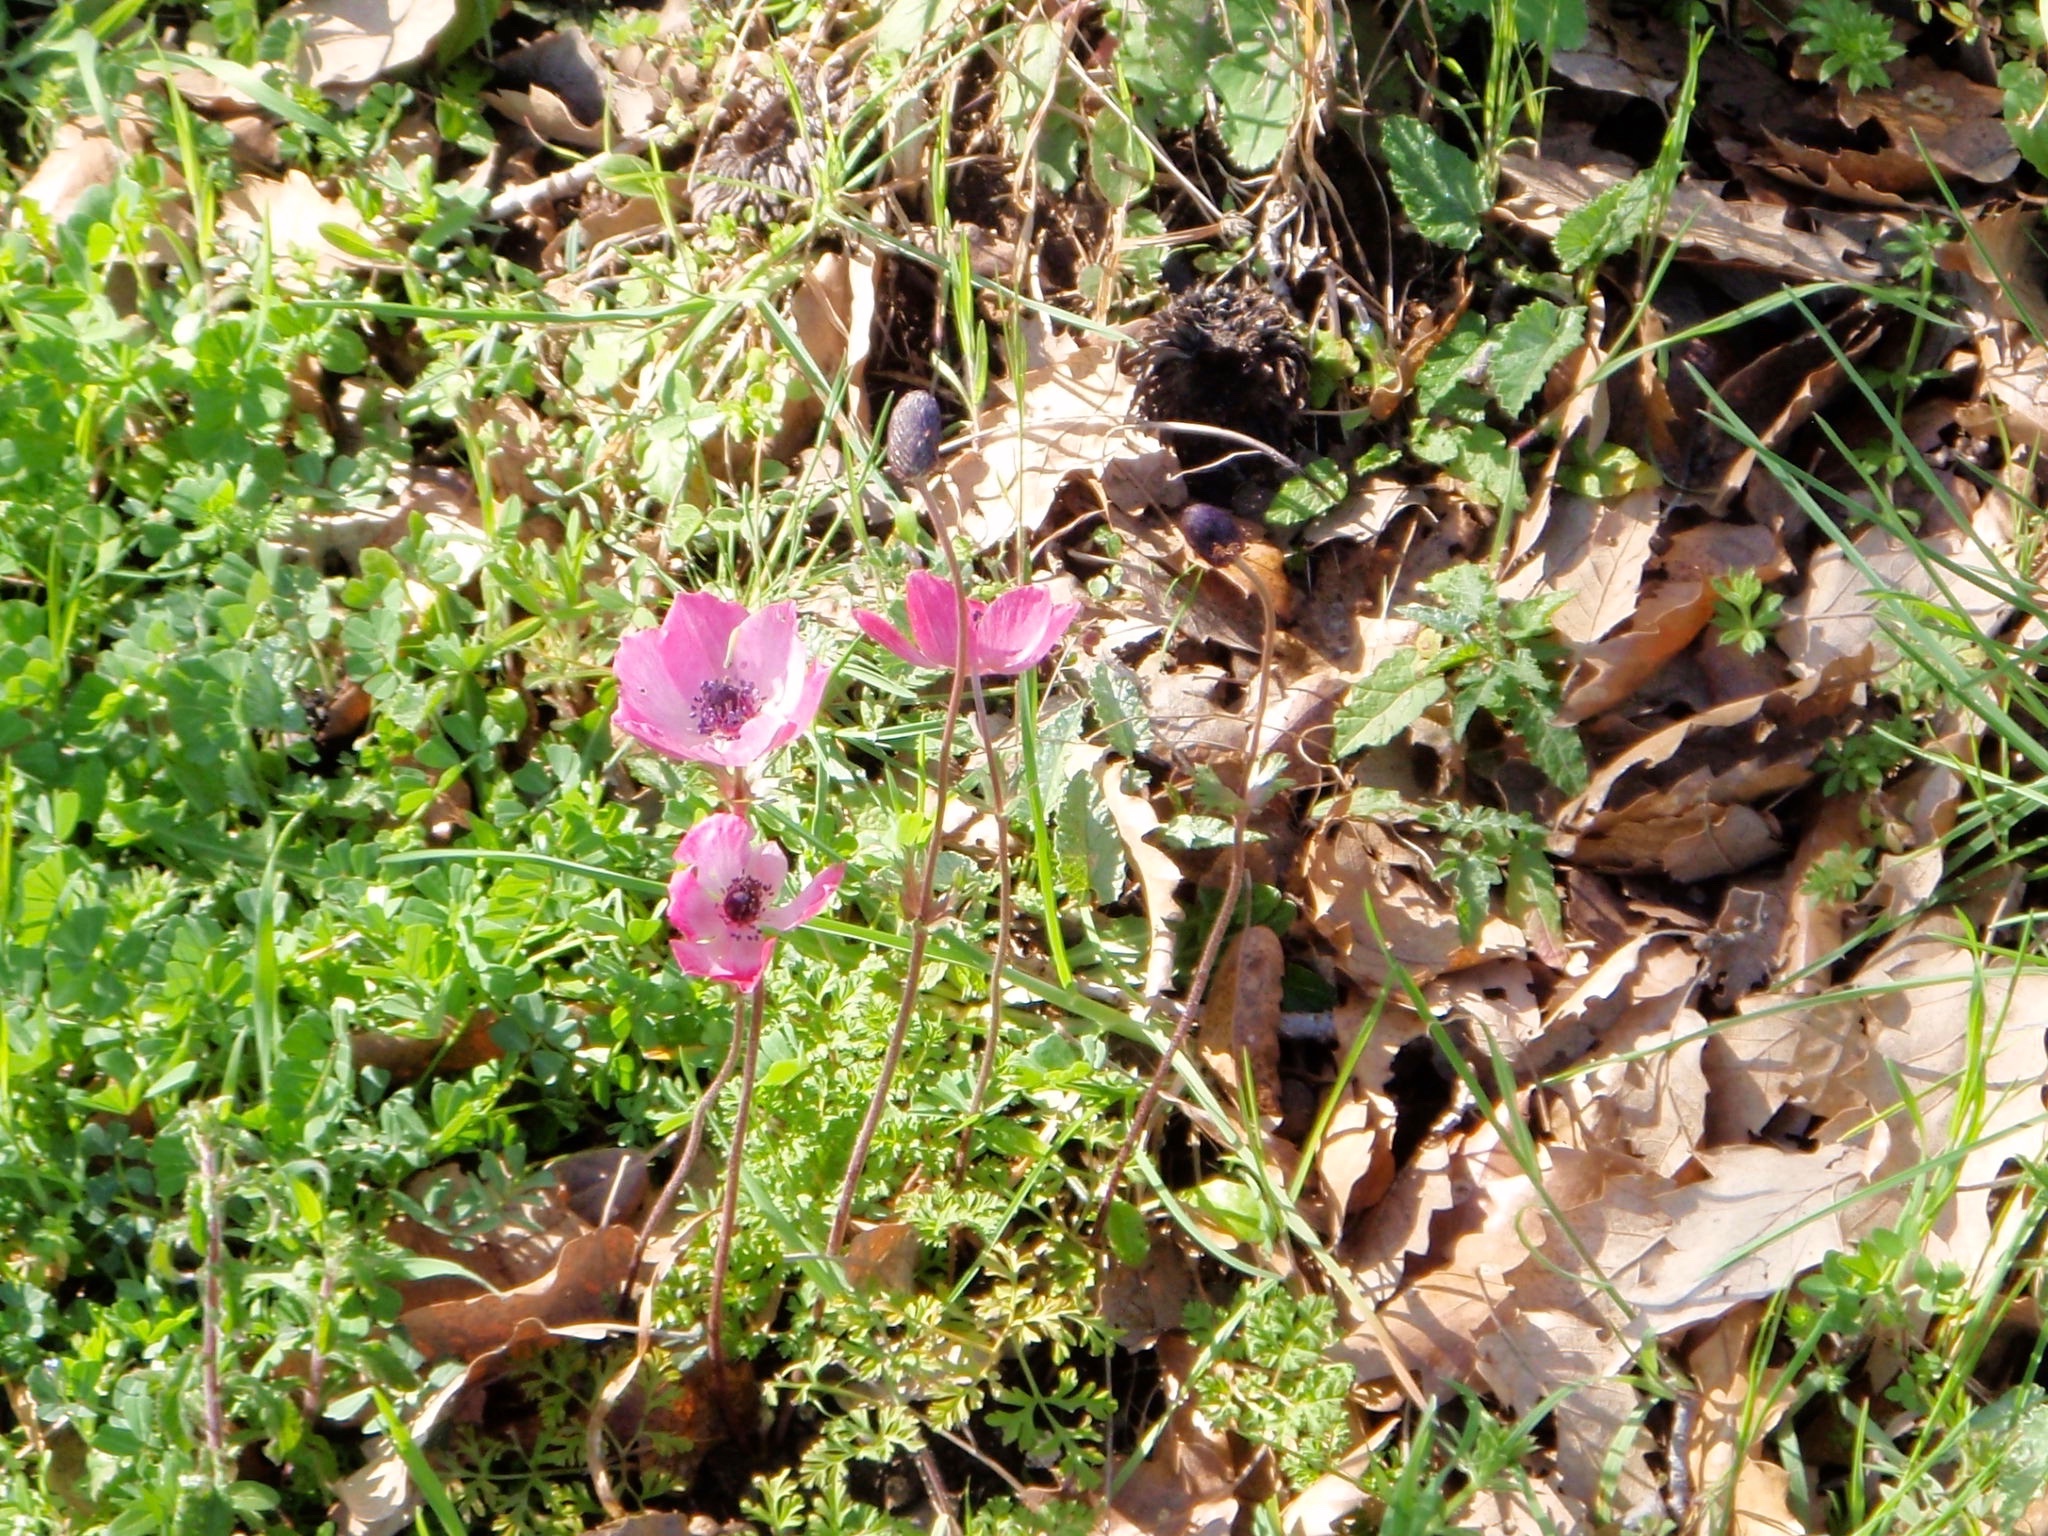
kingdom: Plantae
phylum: Tracheophyta
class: Magnoliopsida
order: Ranunculales
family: Ranunculaceae
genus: Anemone
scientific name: Anemone coronaria
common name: Poppy anemone
